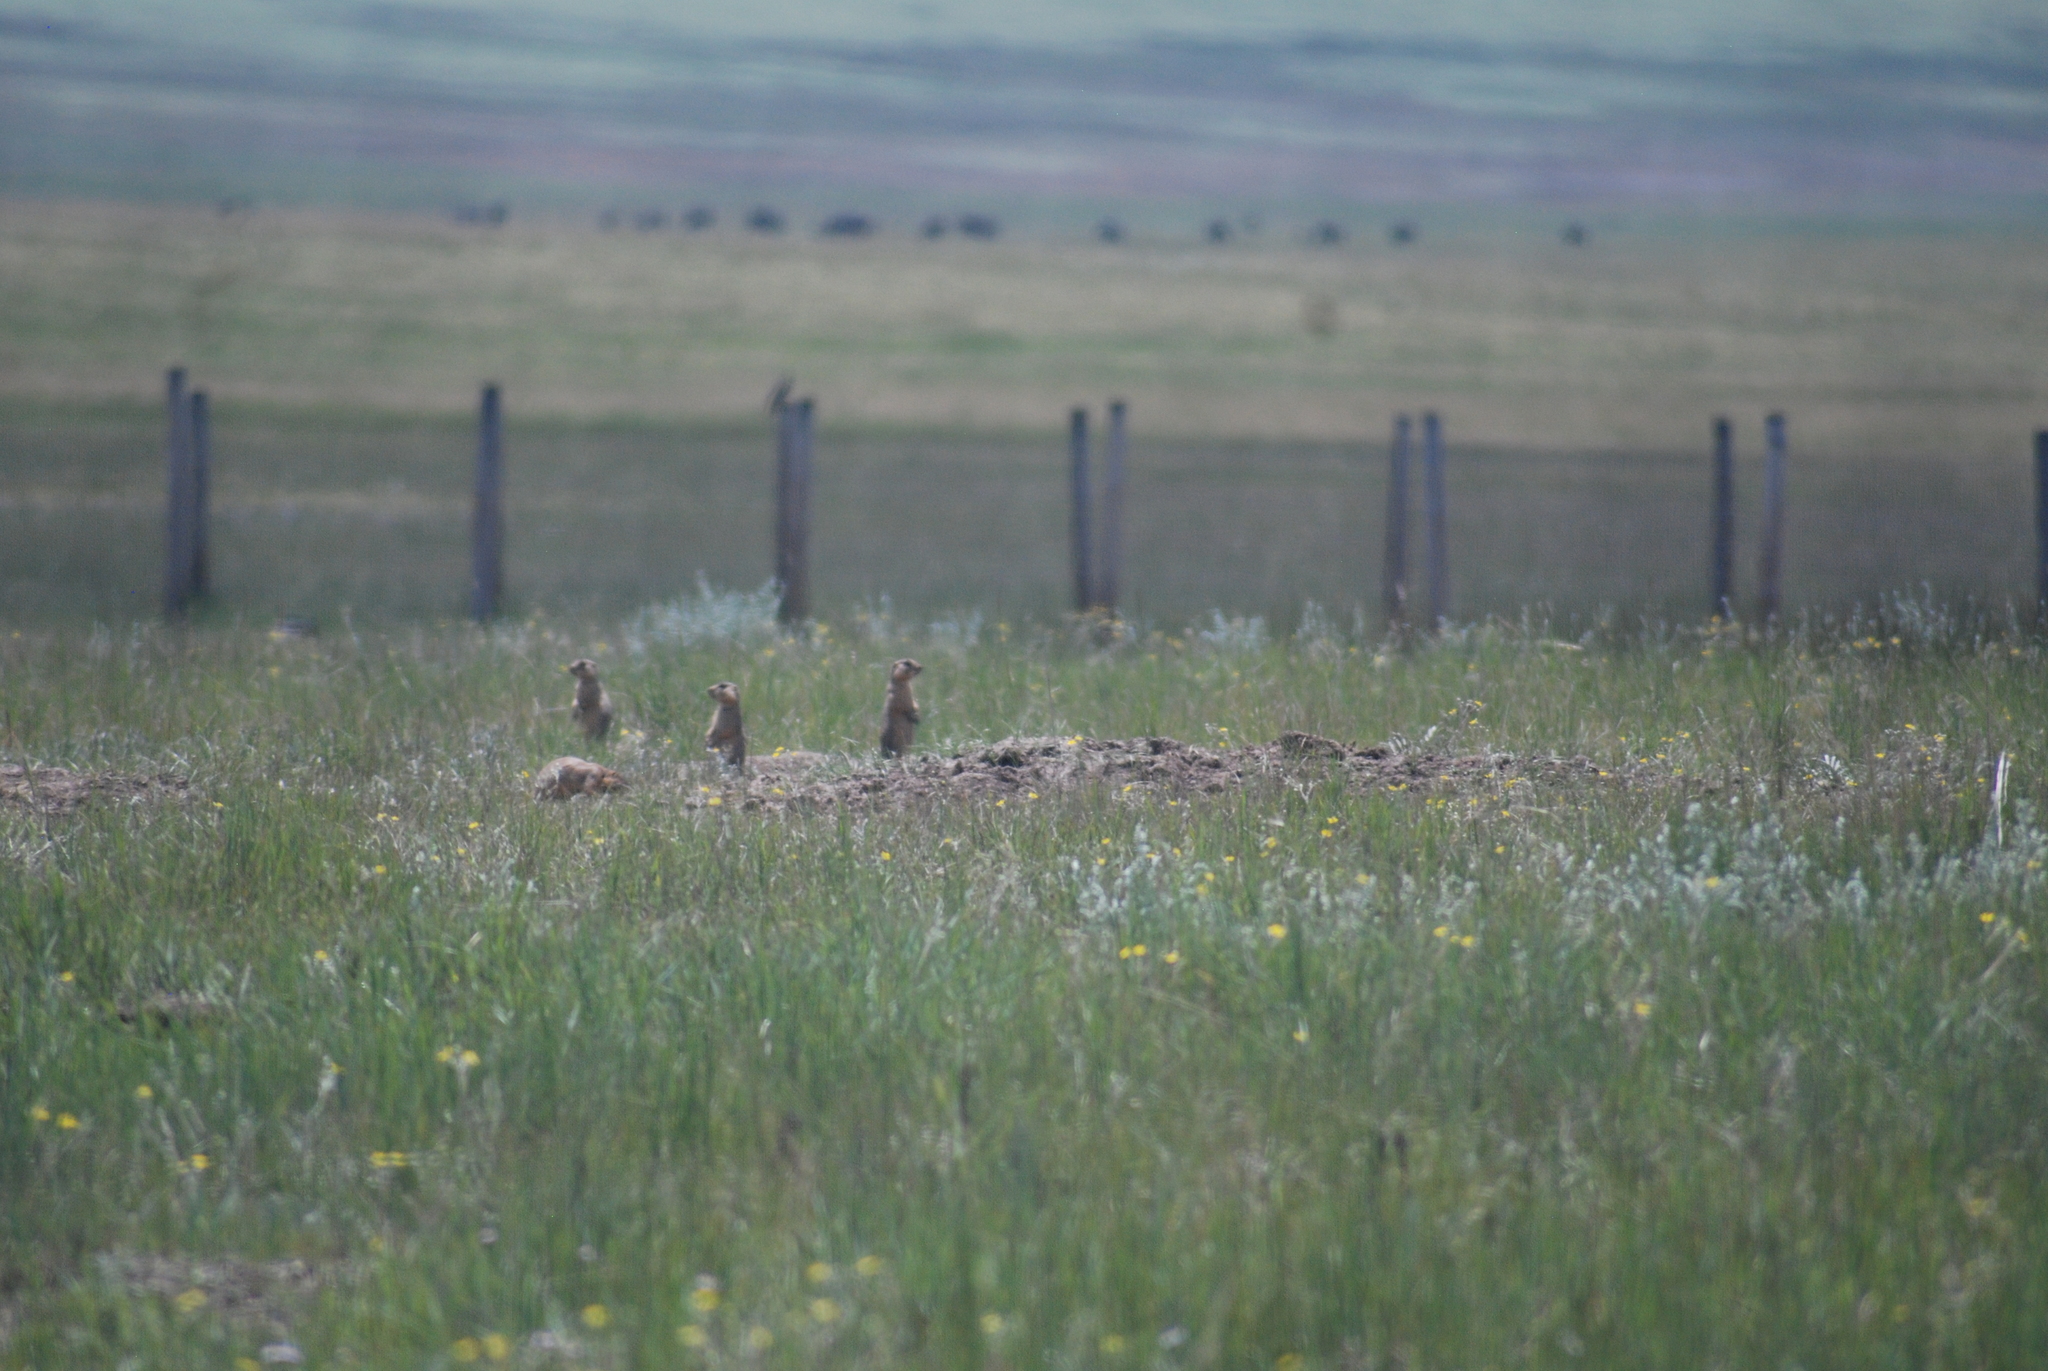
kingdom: Animalia
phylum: Chordata
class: Mammalia
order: Rodentia
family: Sciuridae
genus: Cynomys
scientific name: Cynomys gunnisoni
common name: Gunnison's prairie dog
